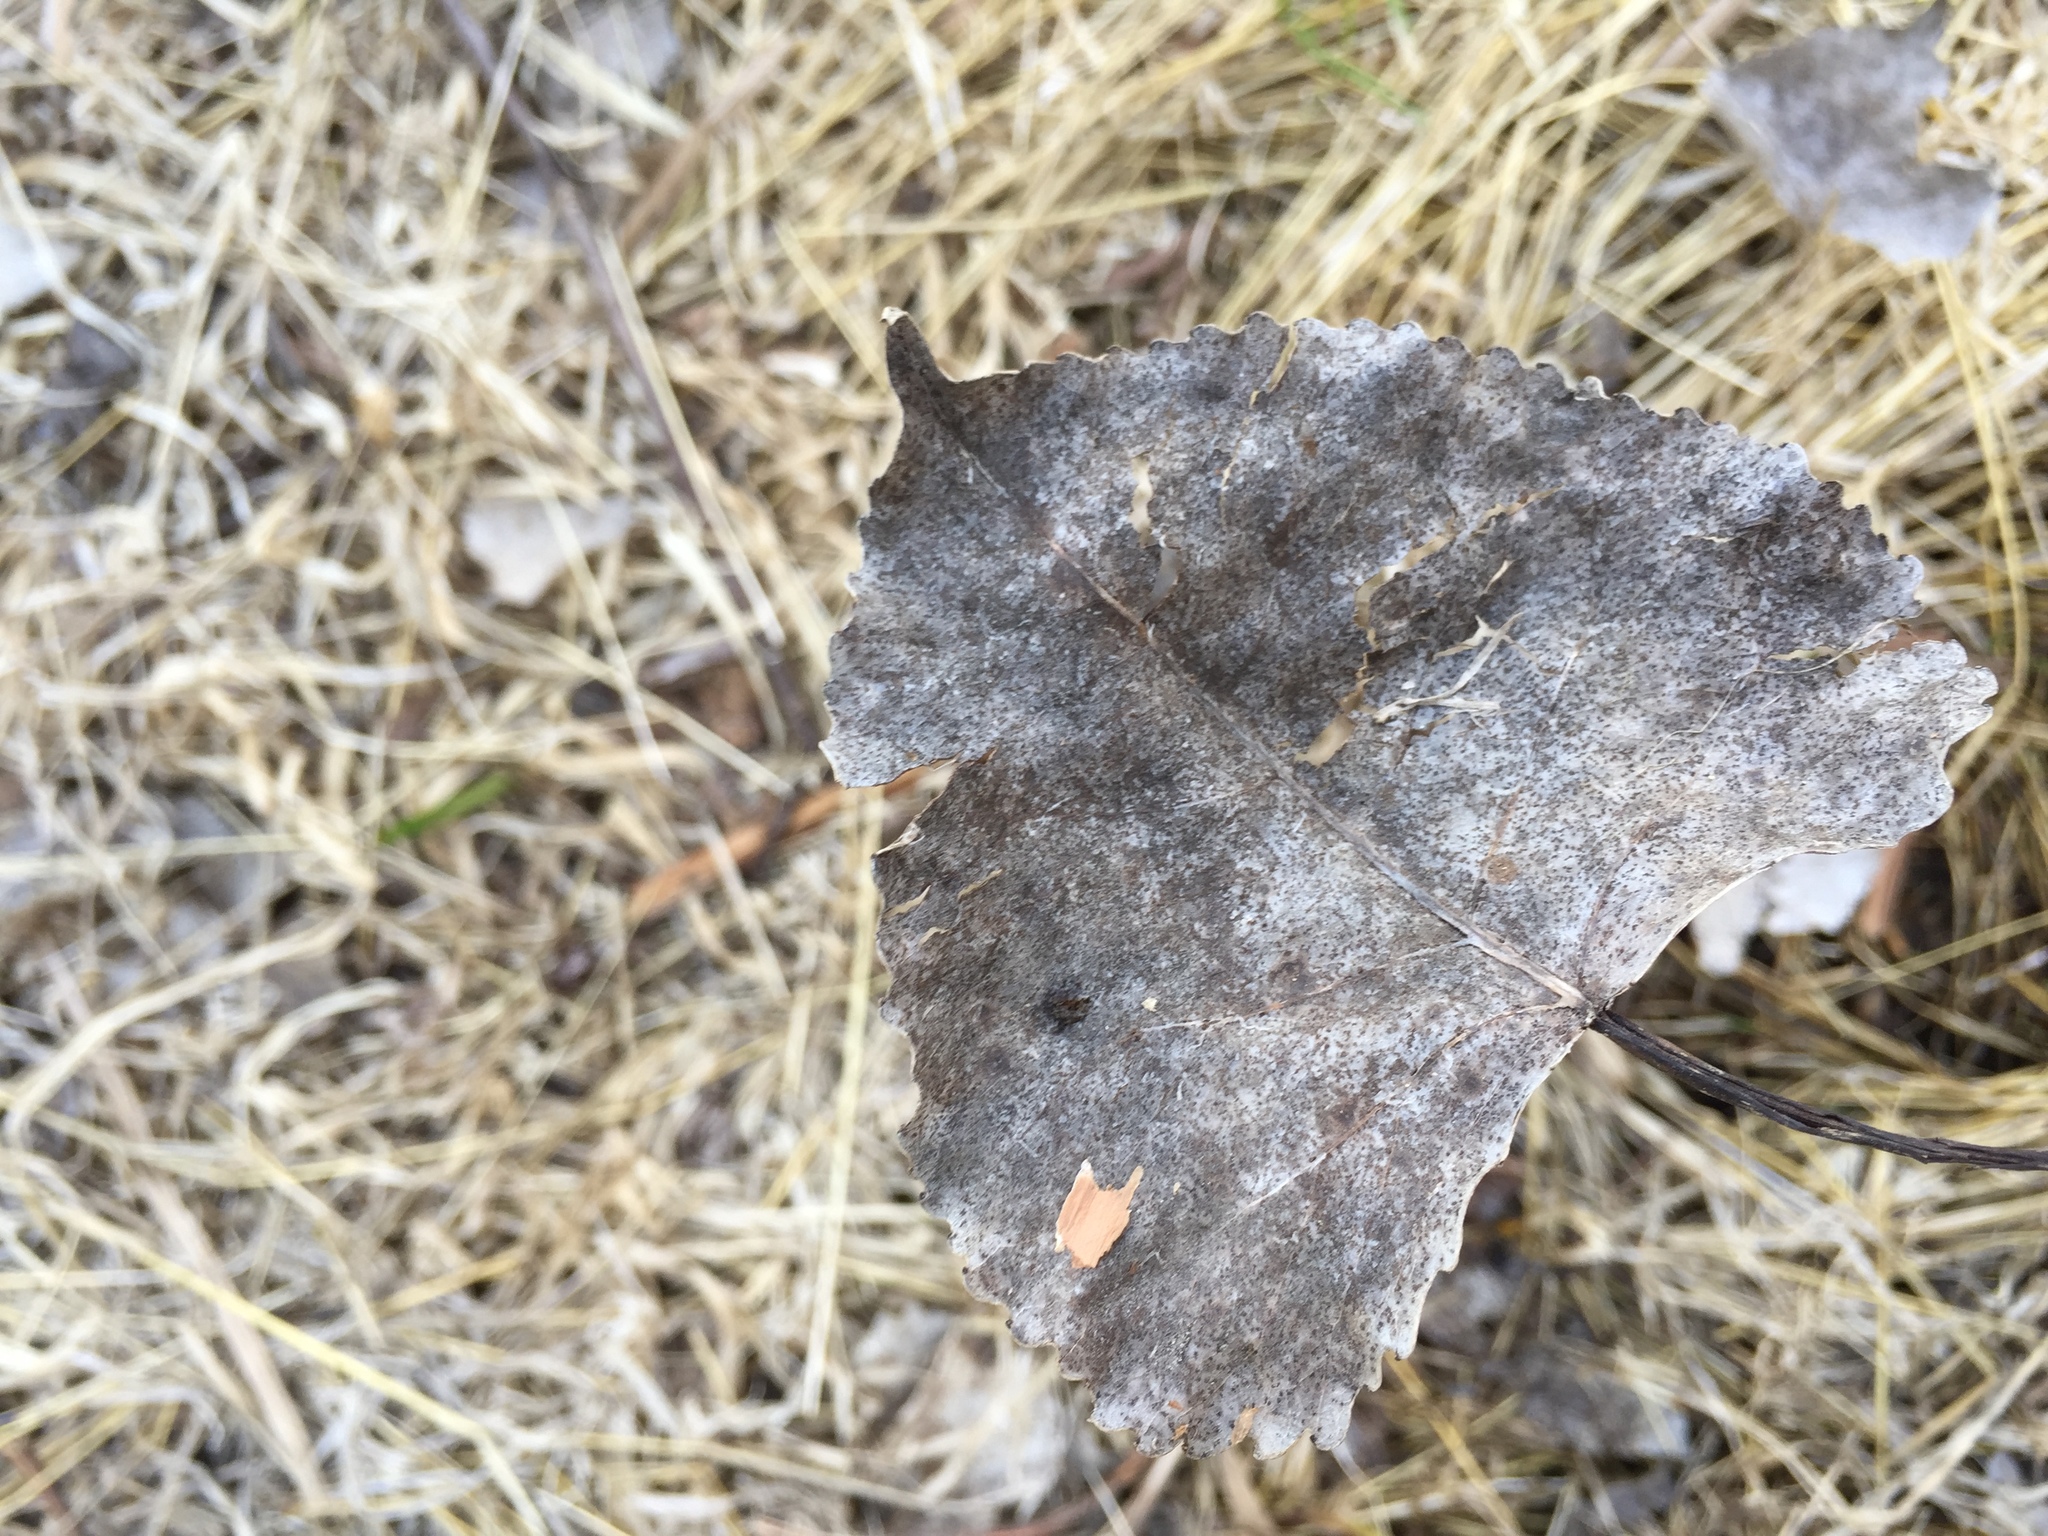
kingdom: Plantae
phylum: Tracheophyta
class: Magnoliopsida
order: Malpighiales
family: Salicaceae
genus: Populus
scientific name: Populus deltoides
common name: Eastern cottonwood
